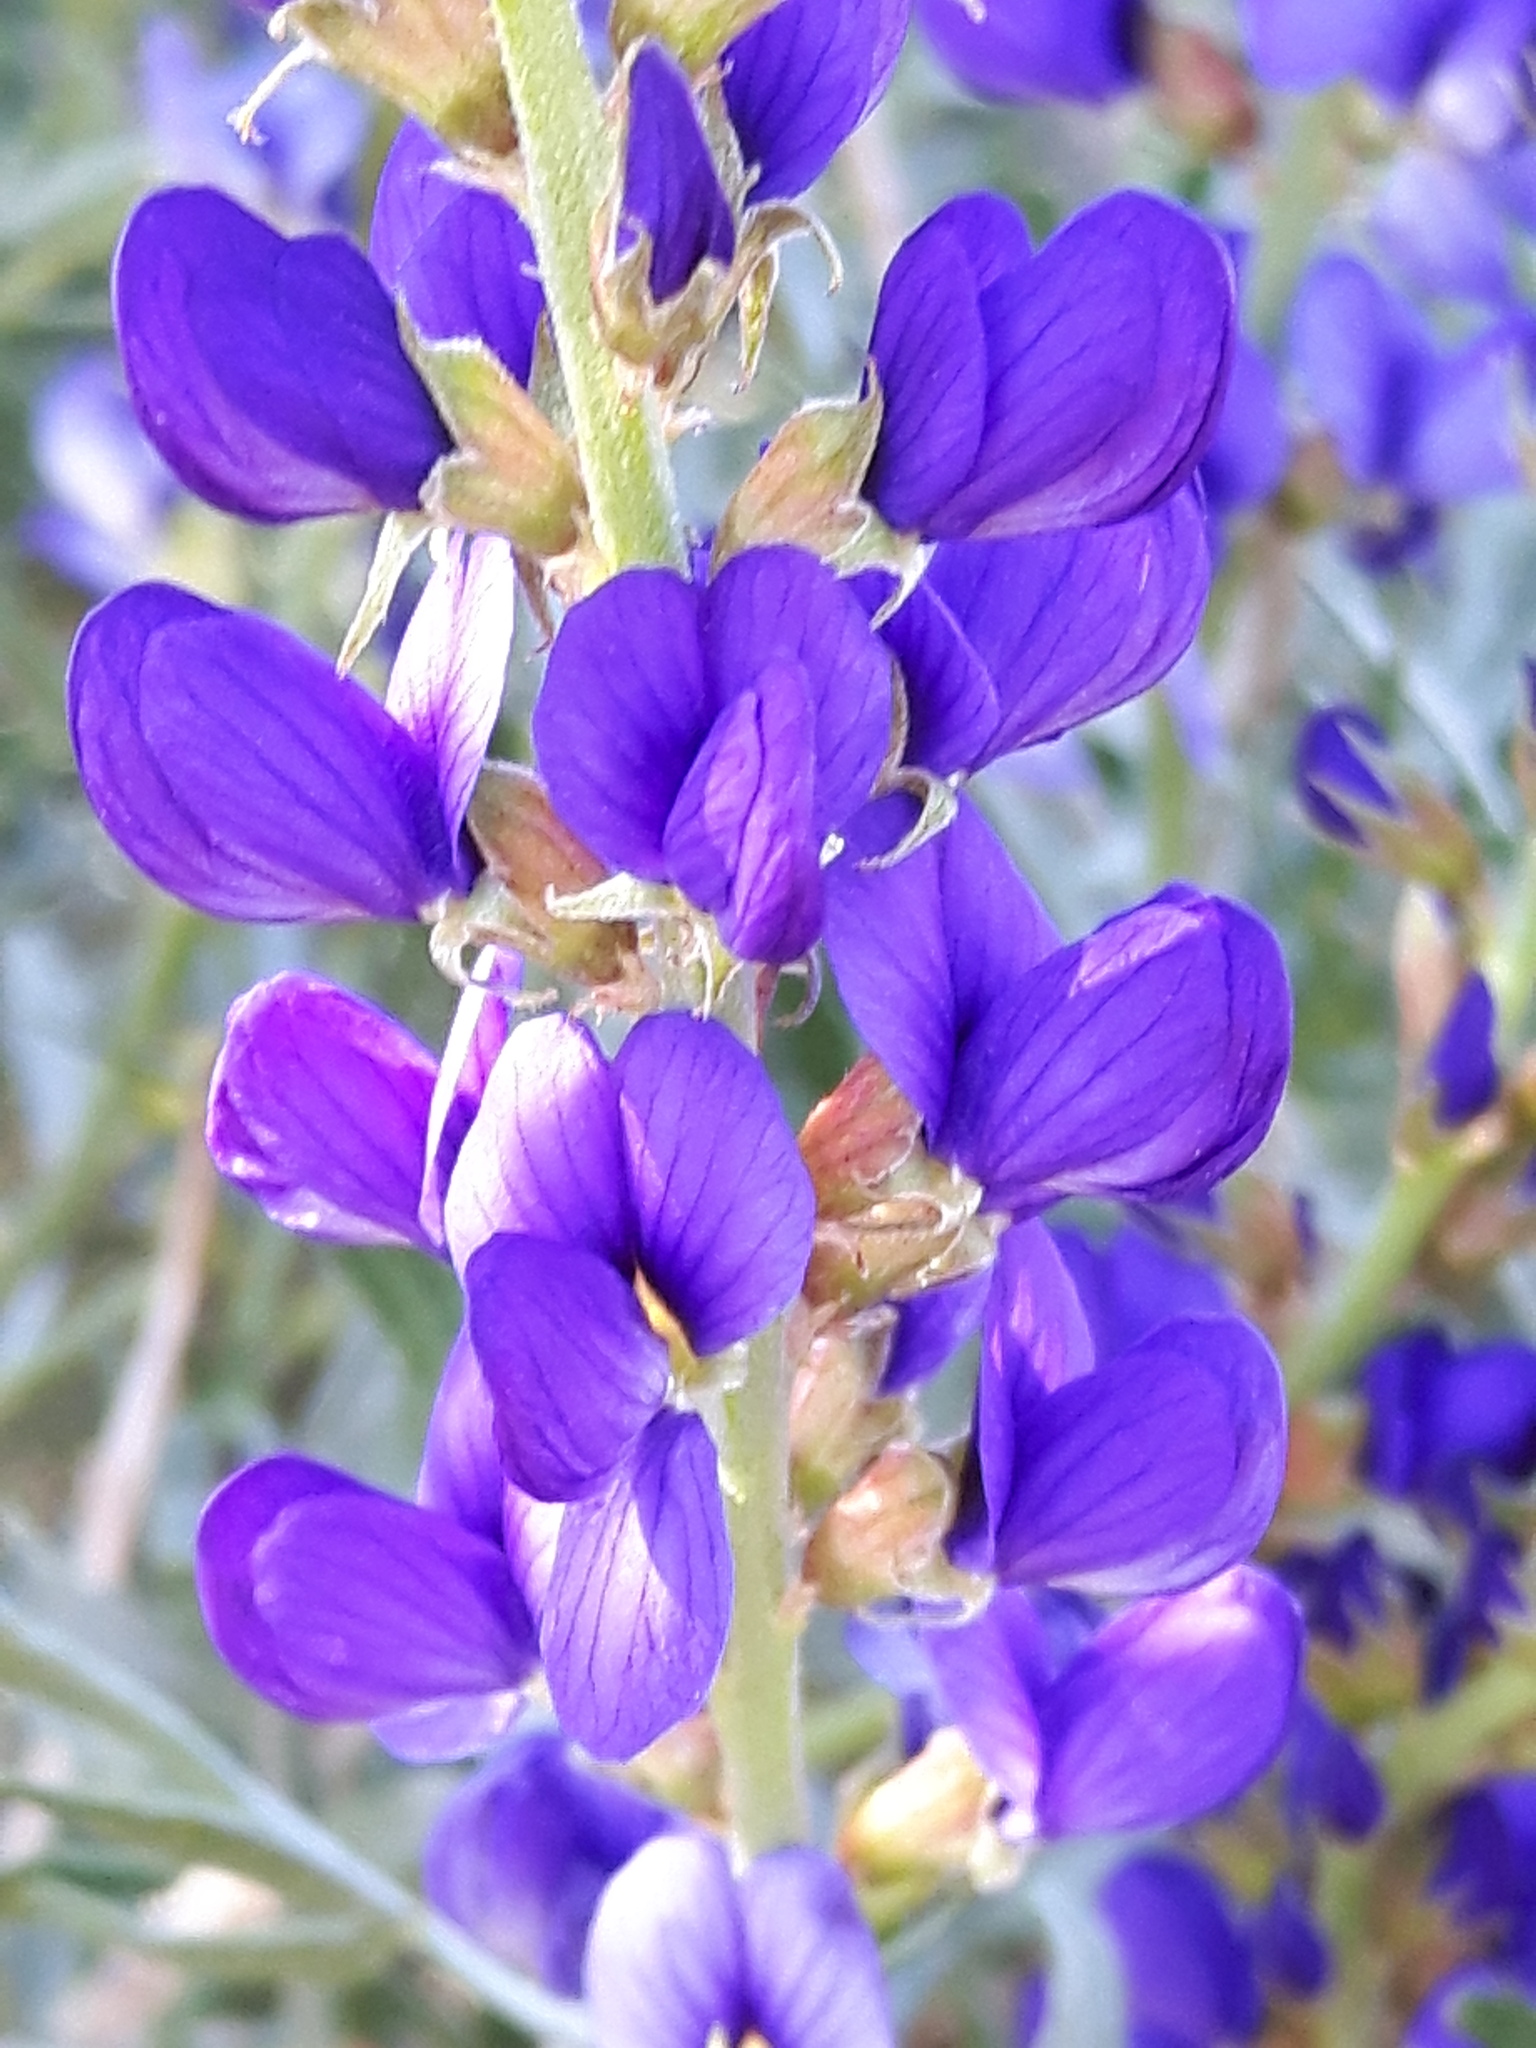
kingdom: Plantae
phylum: Tracheophyta
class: Magnoliopsida
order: Fabales
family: Fabaceae
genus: Psorothamnus
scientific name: Psorothamnus arborescens
